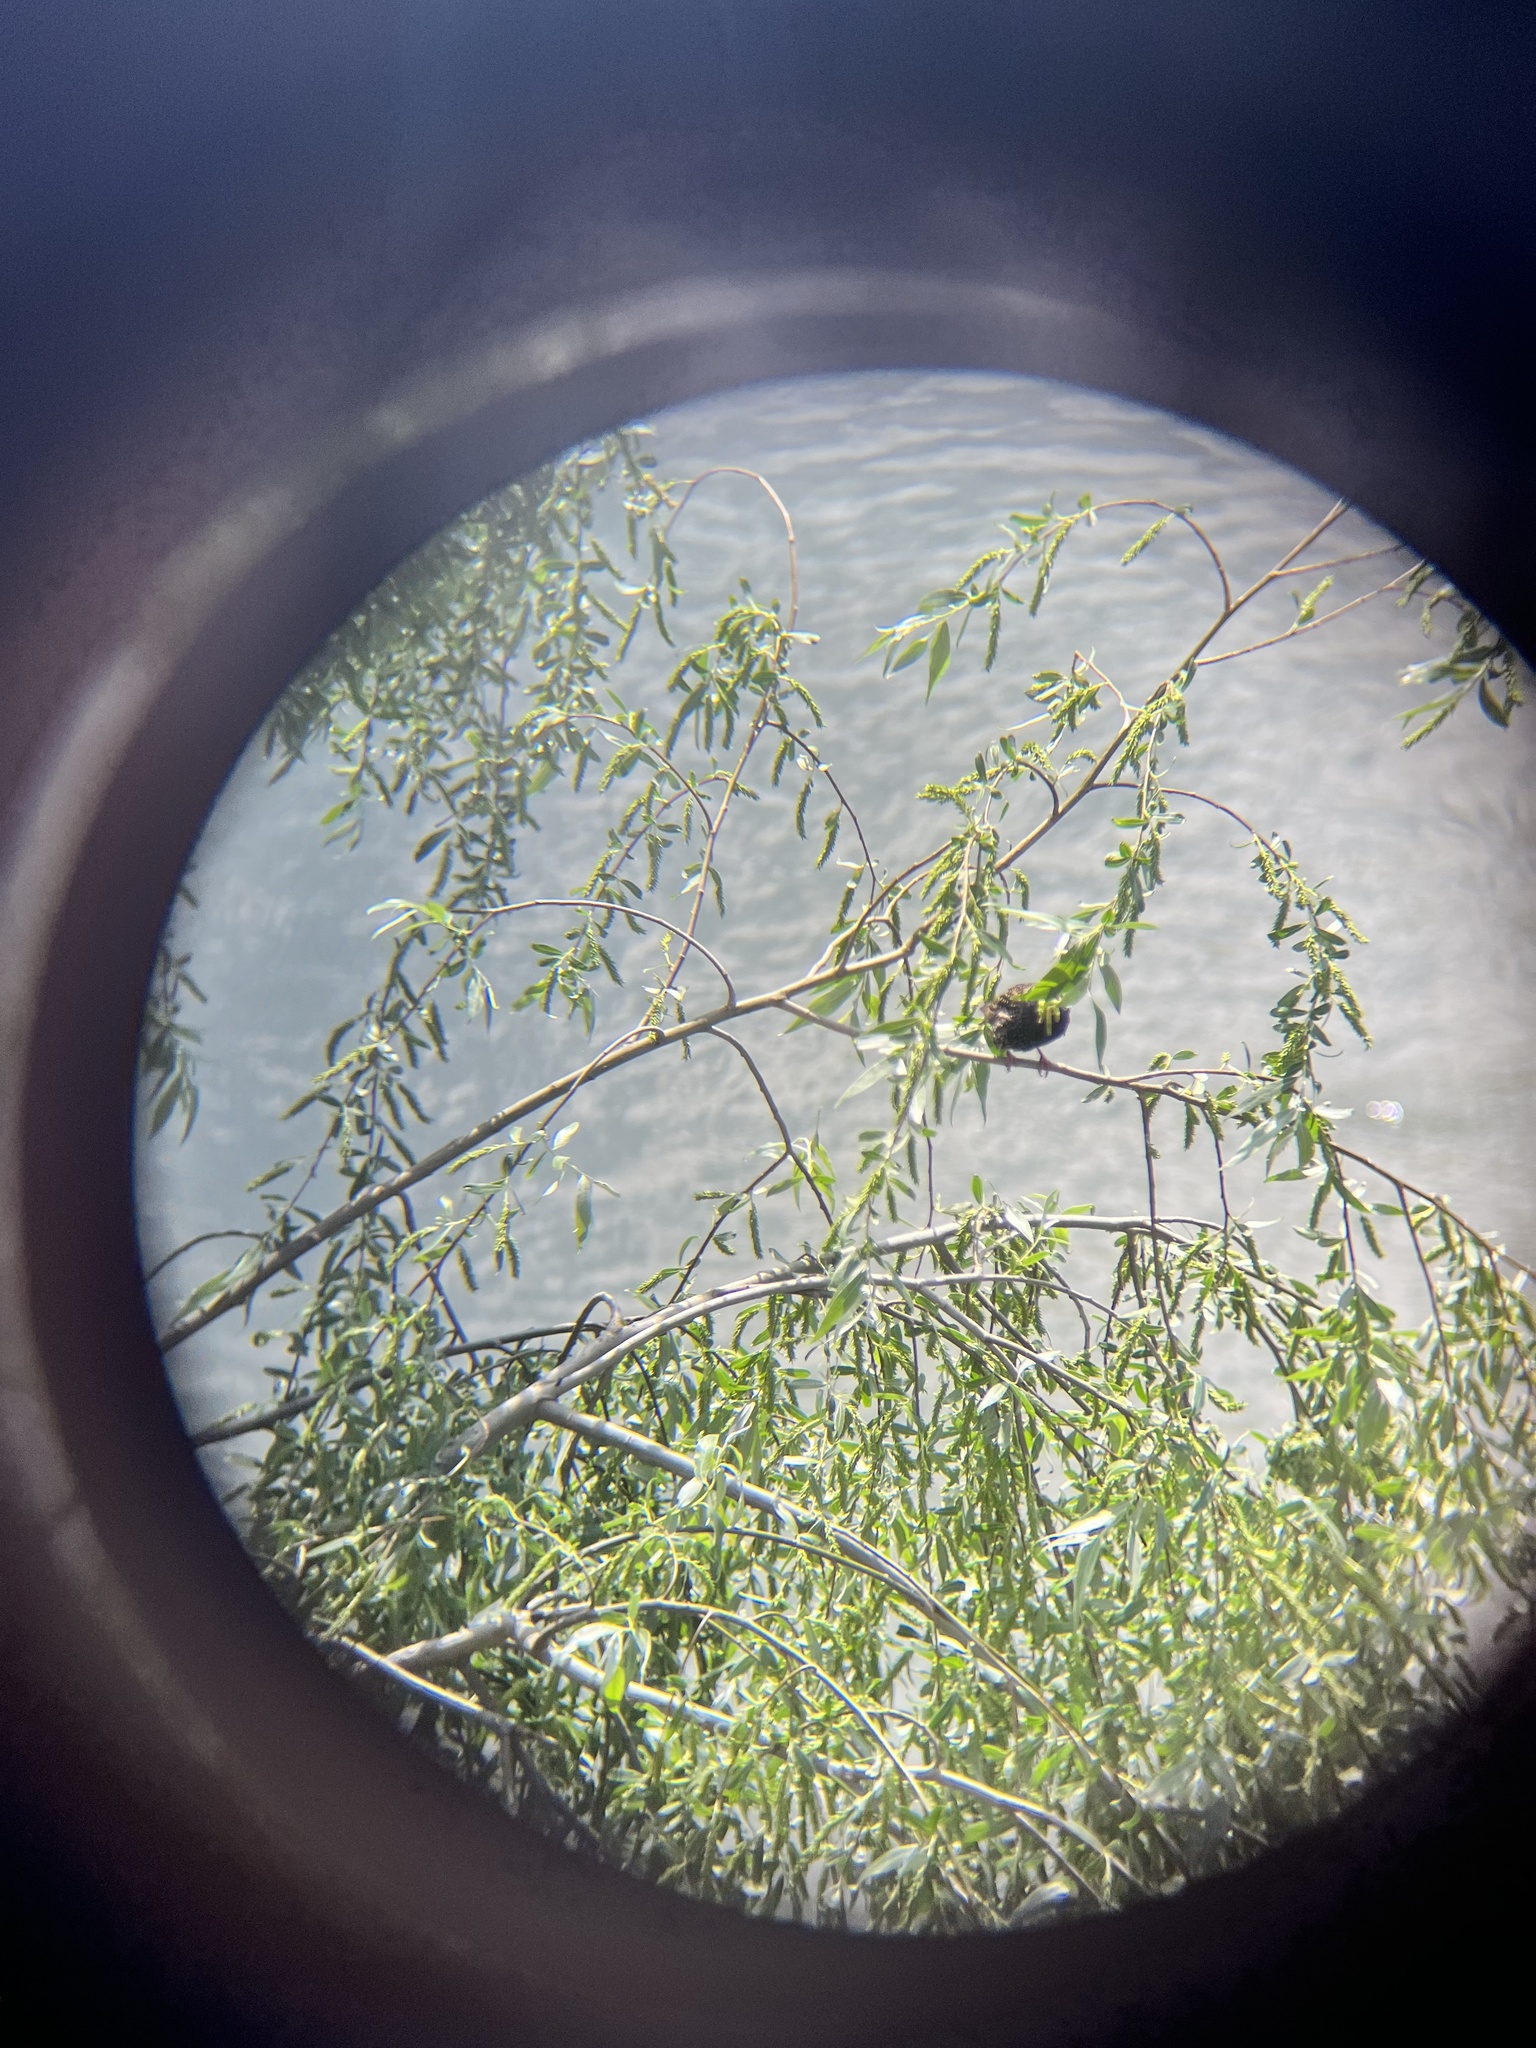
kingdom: Animalia
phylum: Chordata
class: Aves
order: Passeriformes
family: Sturnidae
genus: Sturnus
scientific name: Sturnus vulgaris
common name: Common starling
